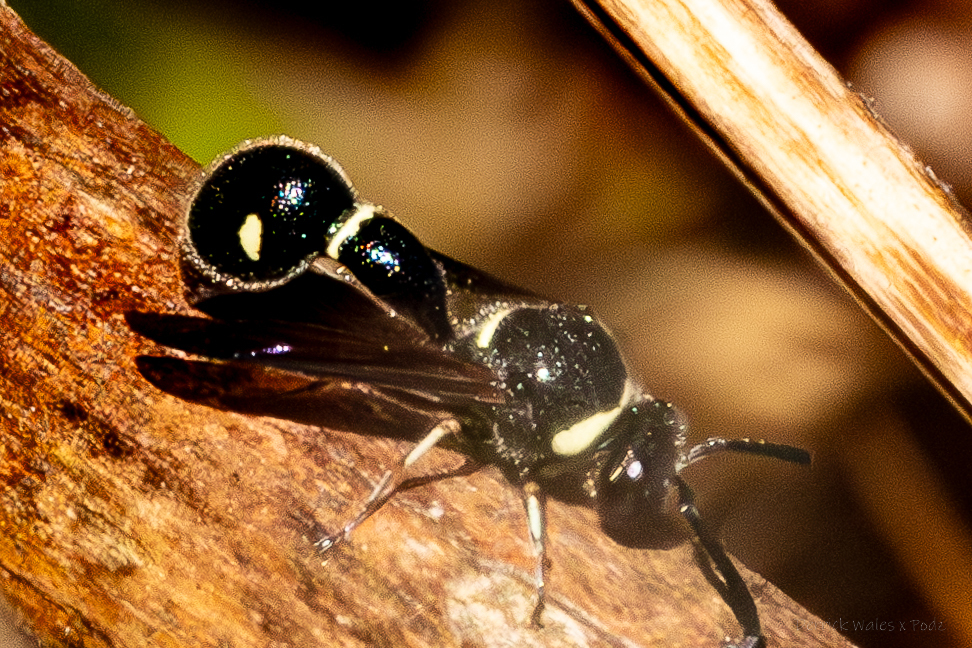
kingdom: Animalia
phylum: Arthropoda
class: Insecta
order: Hymenoptera
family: Vespidae
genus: Eumenes
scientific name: Eumenes fraternus
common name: Fraternal potter wasp
